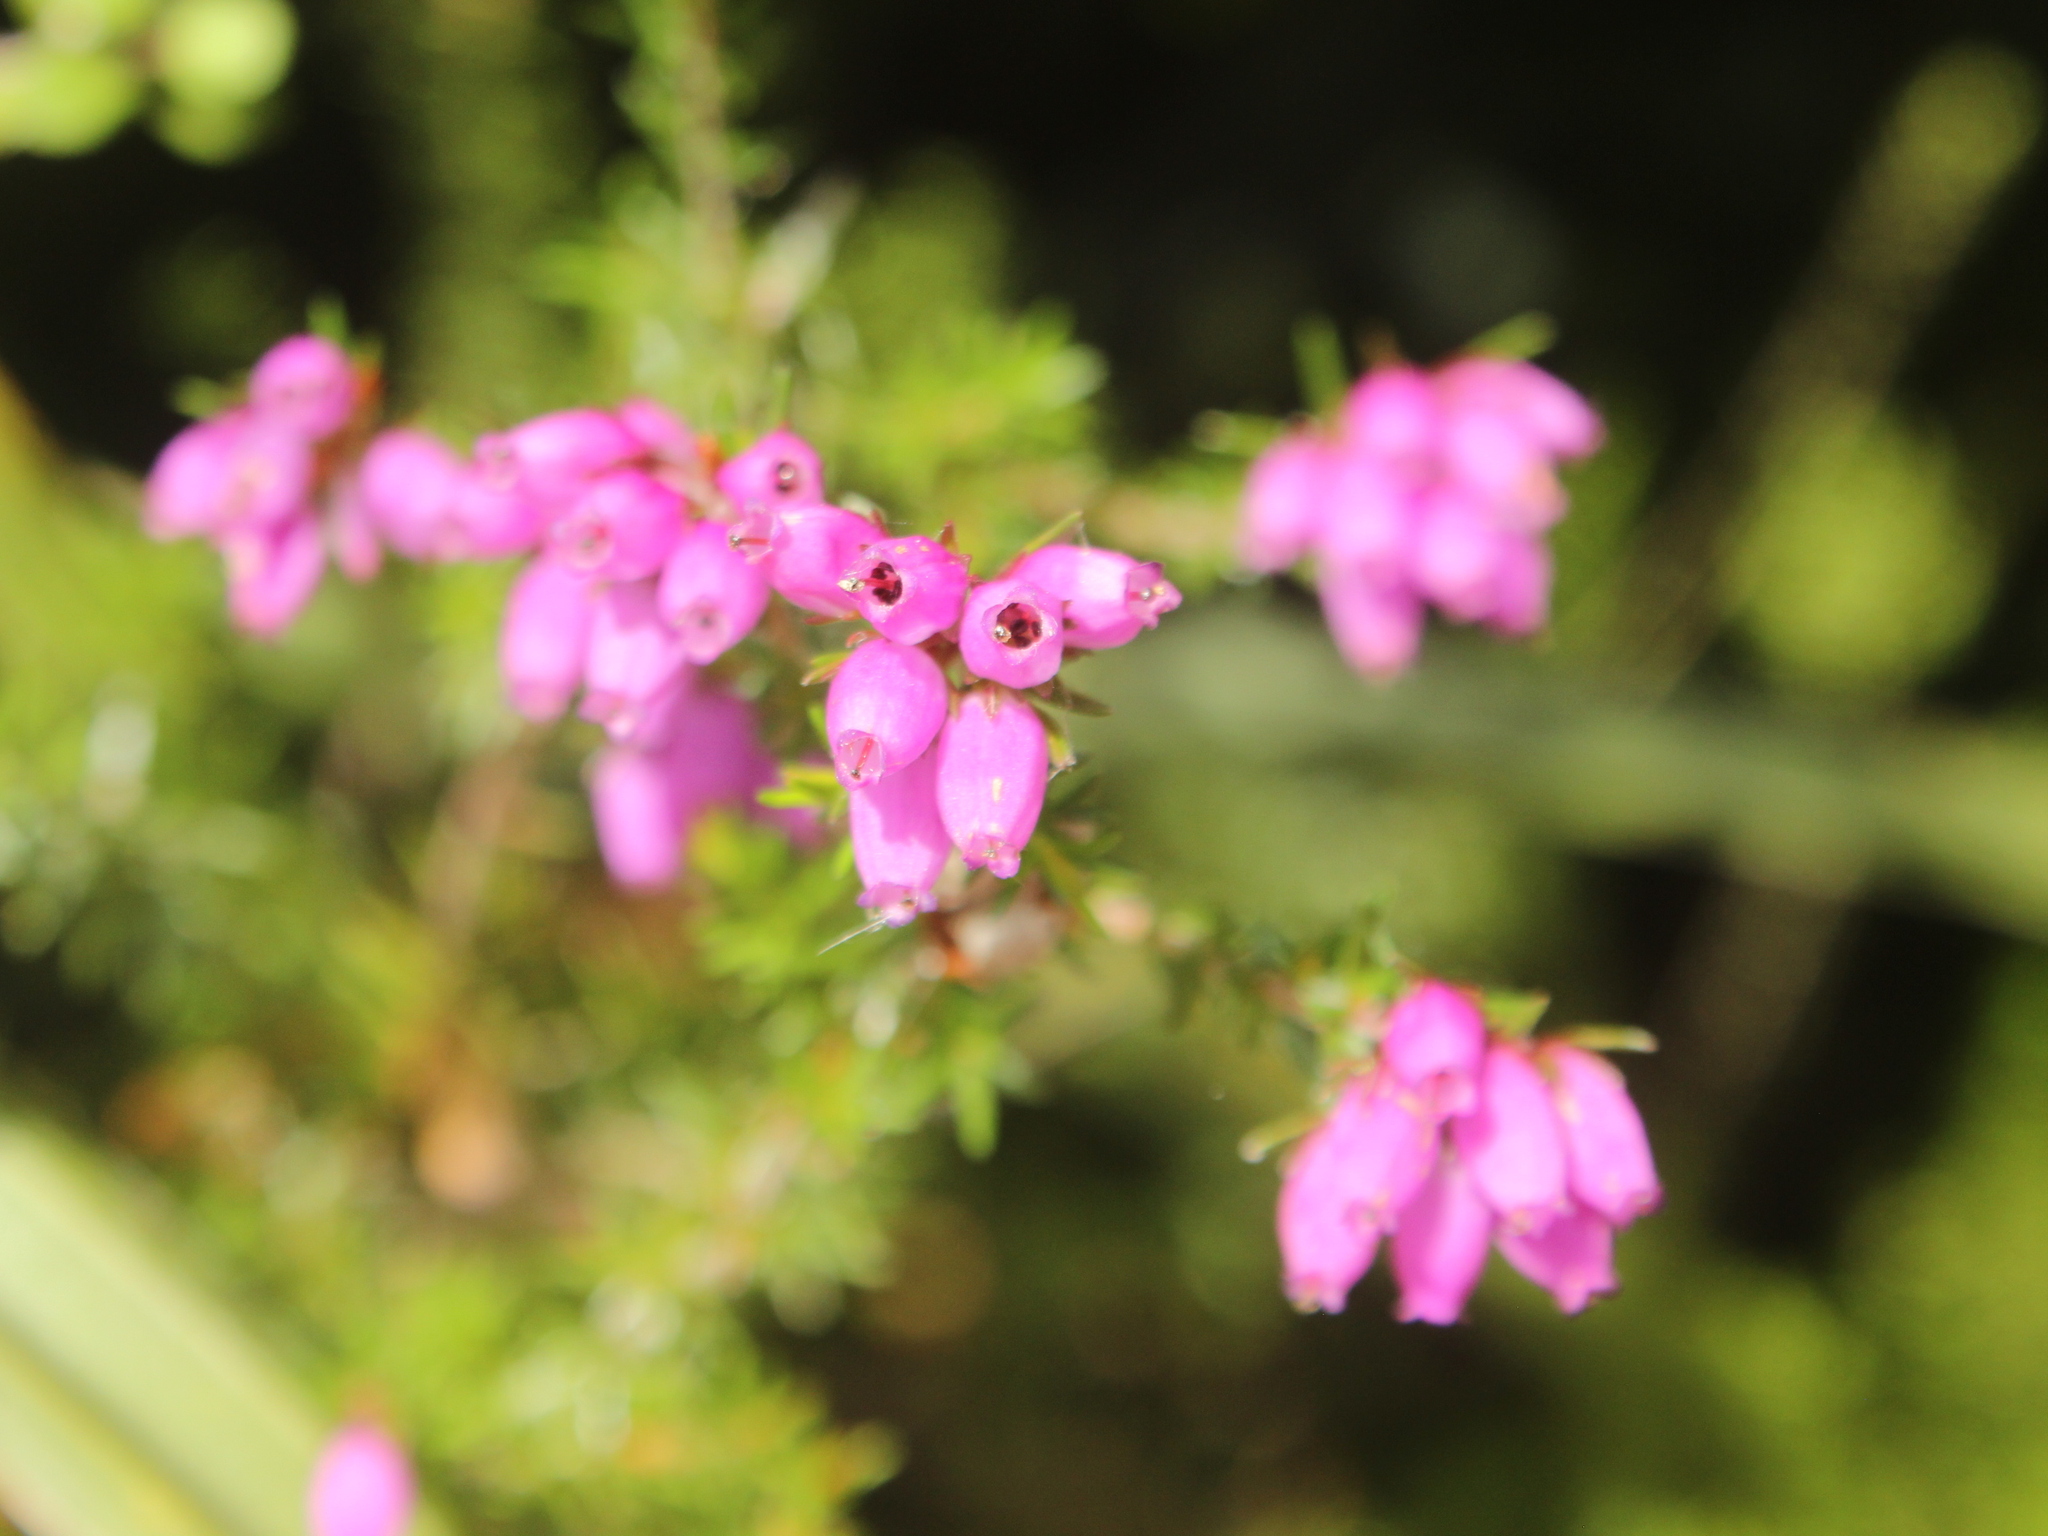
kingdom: Plantae
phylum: Tracheophyta
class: Magnoliopsida
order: Ericales
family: Ericaceae
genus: Erica
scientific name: Erica cinerea
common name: Bell heather
